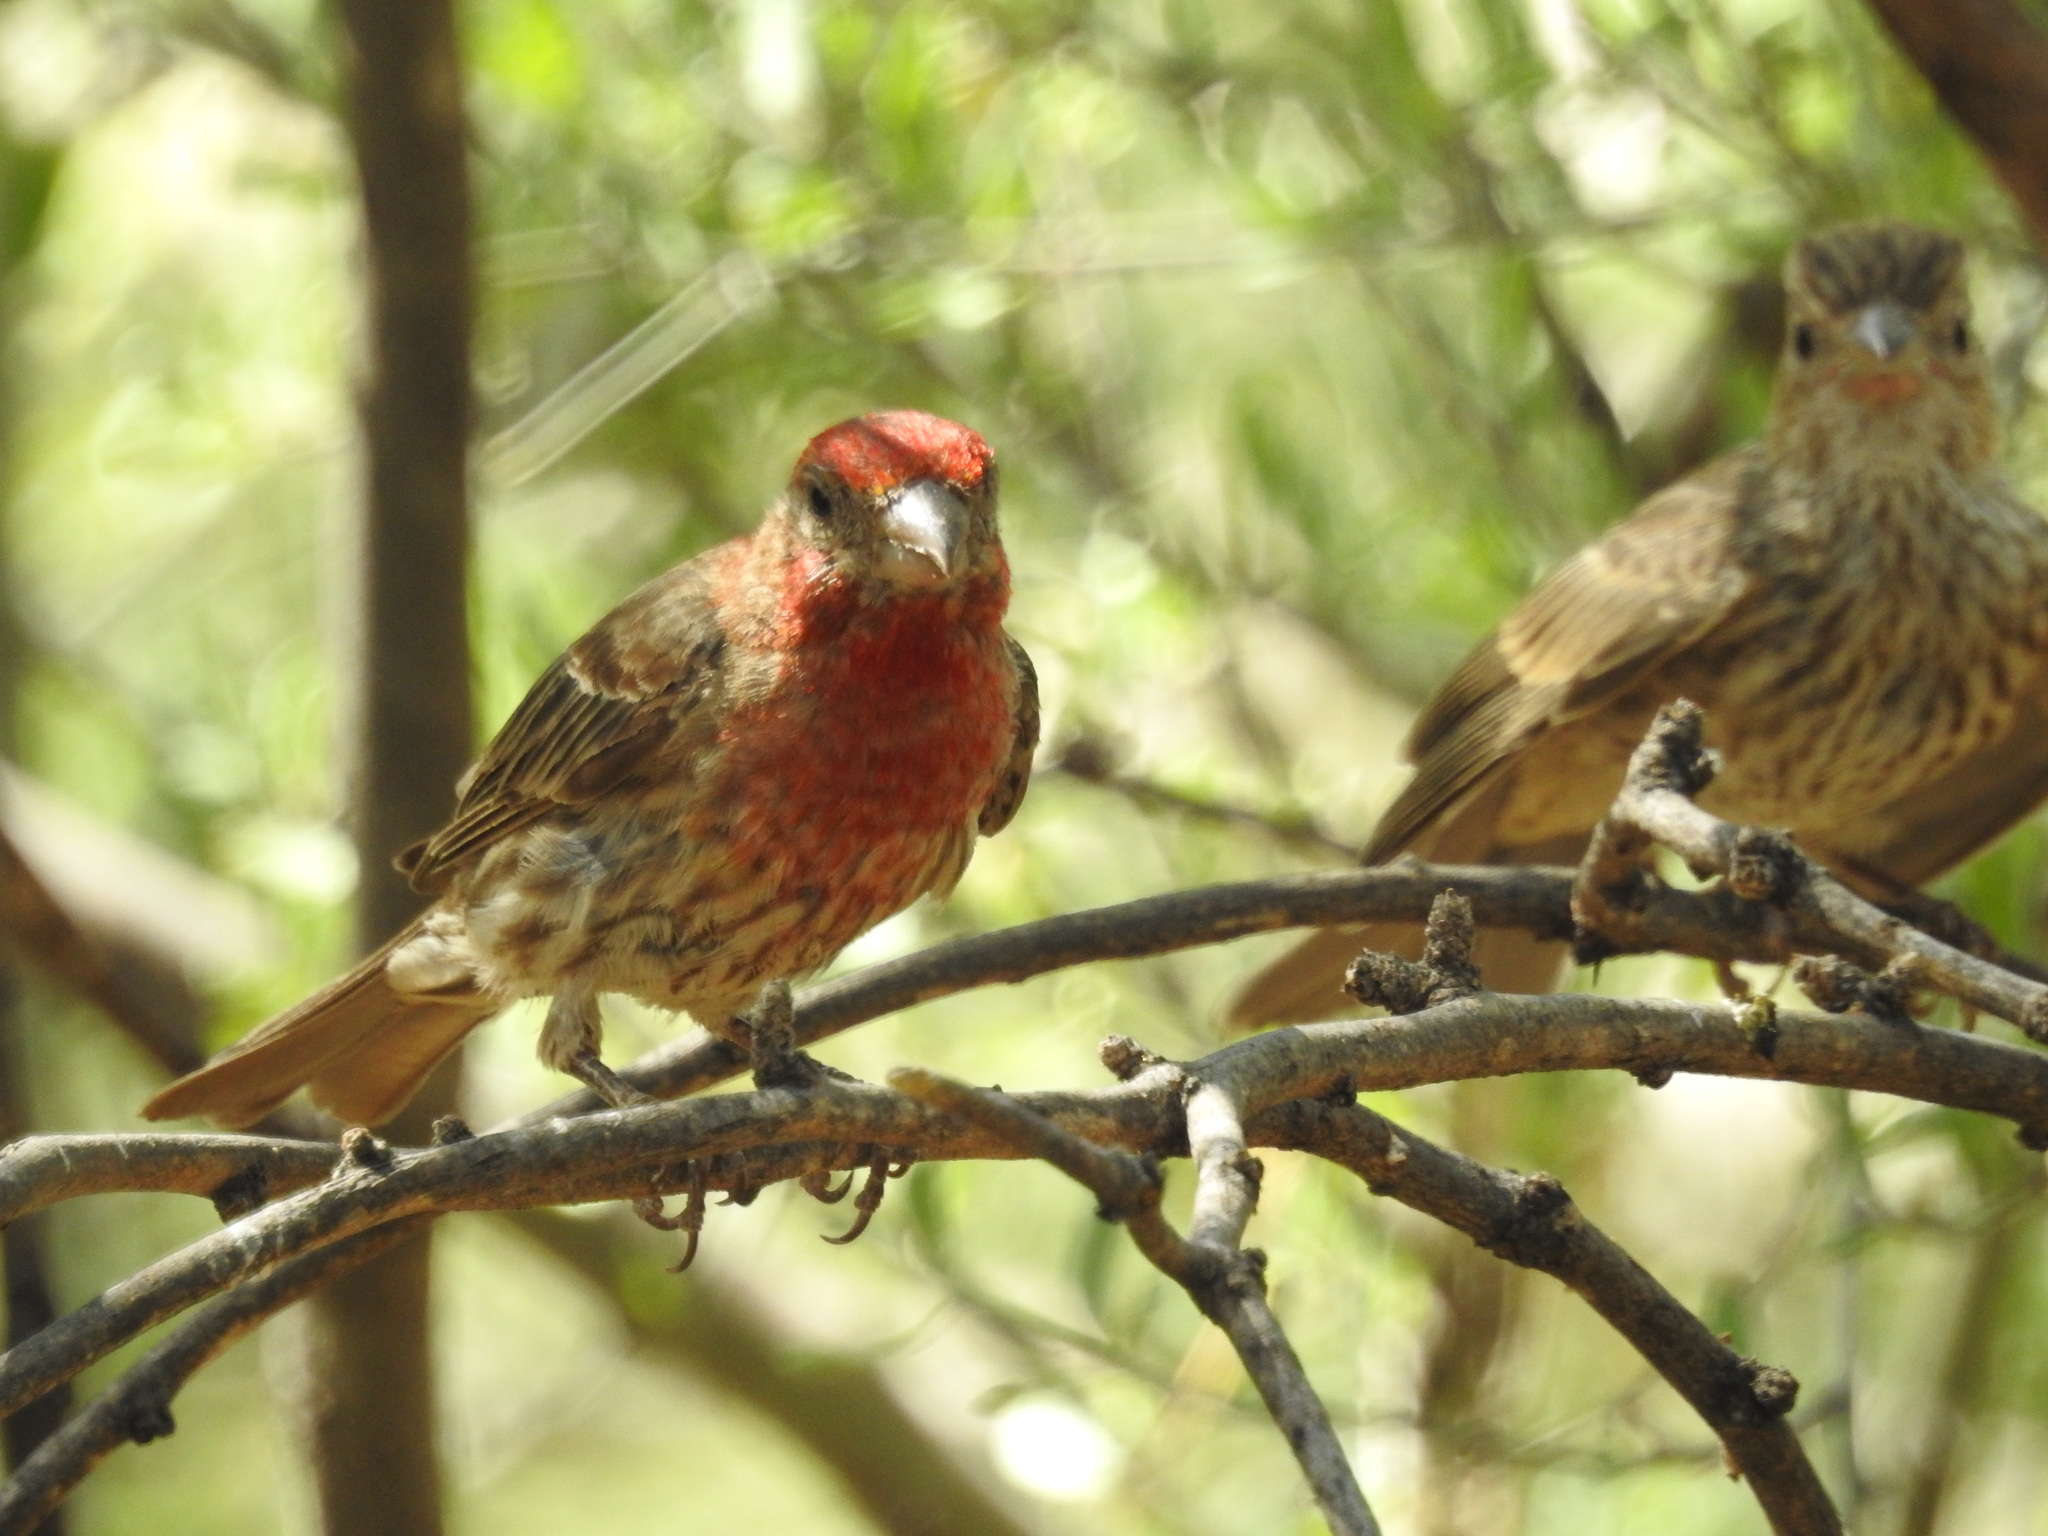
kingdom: Animalia
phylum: Chordata
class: Aves
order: Passeriformes
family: Fringillidae
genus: Haemorhous
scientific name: Haemorhous mexicanus
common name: House finch
